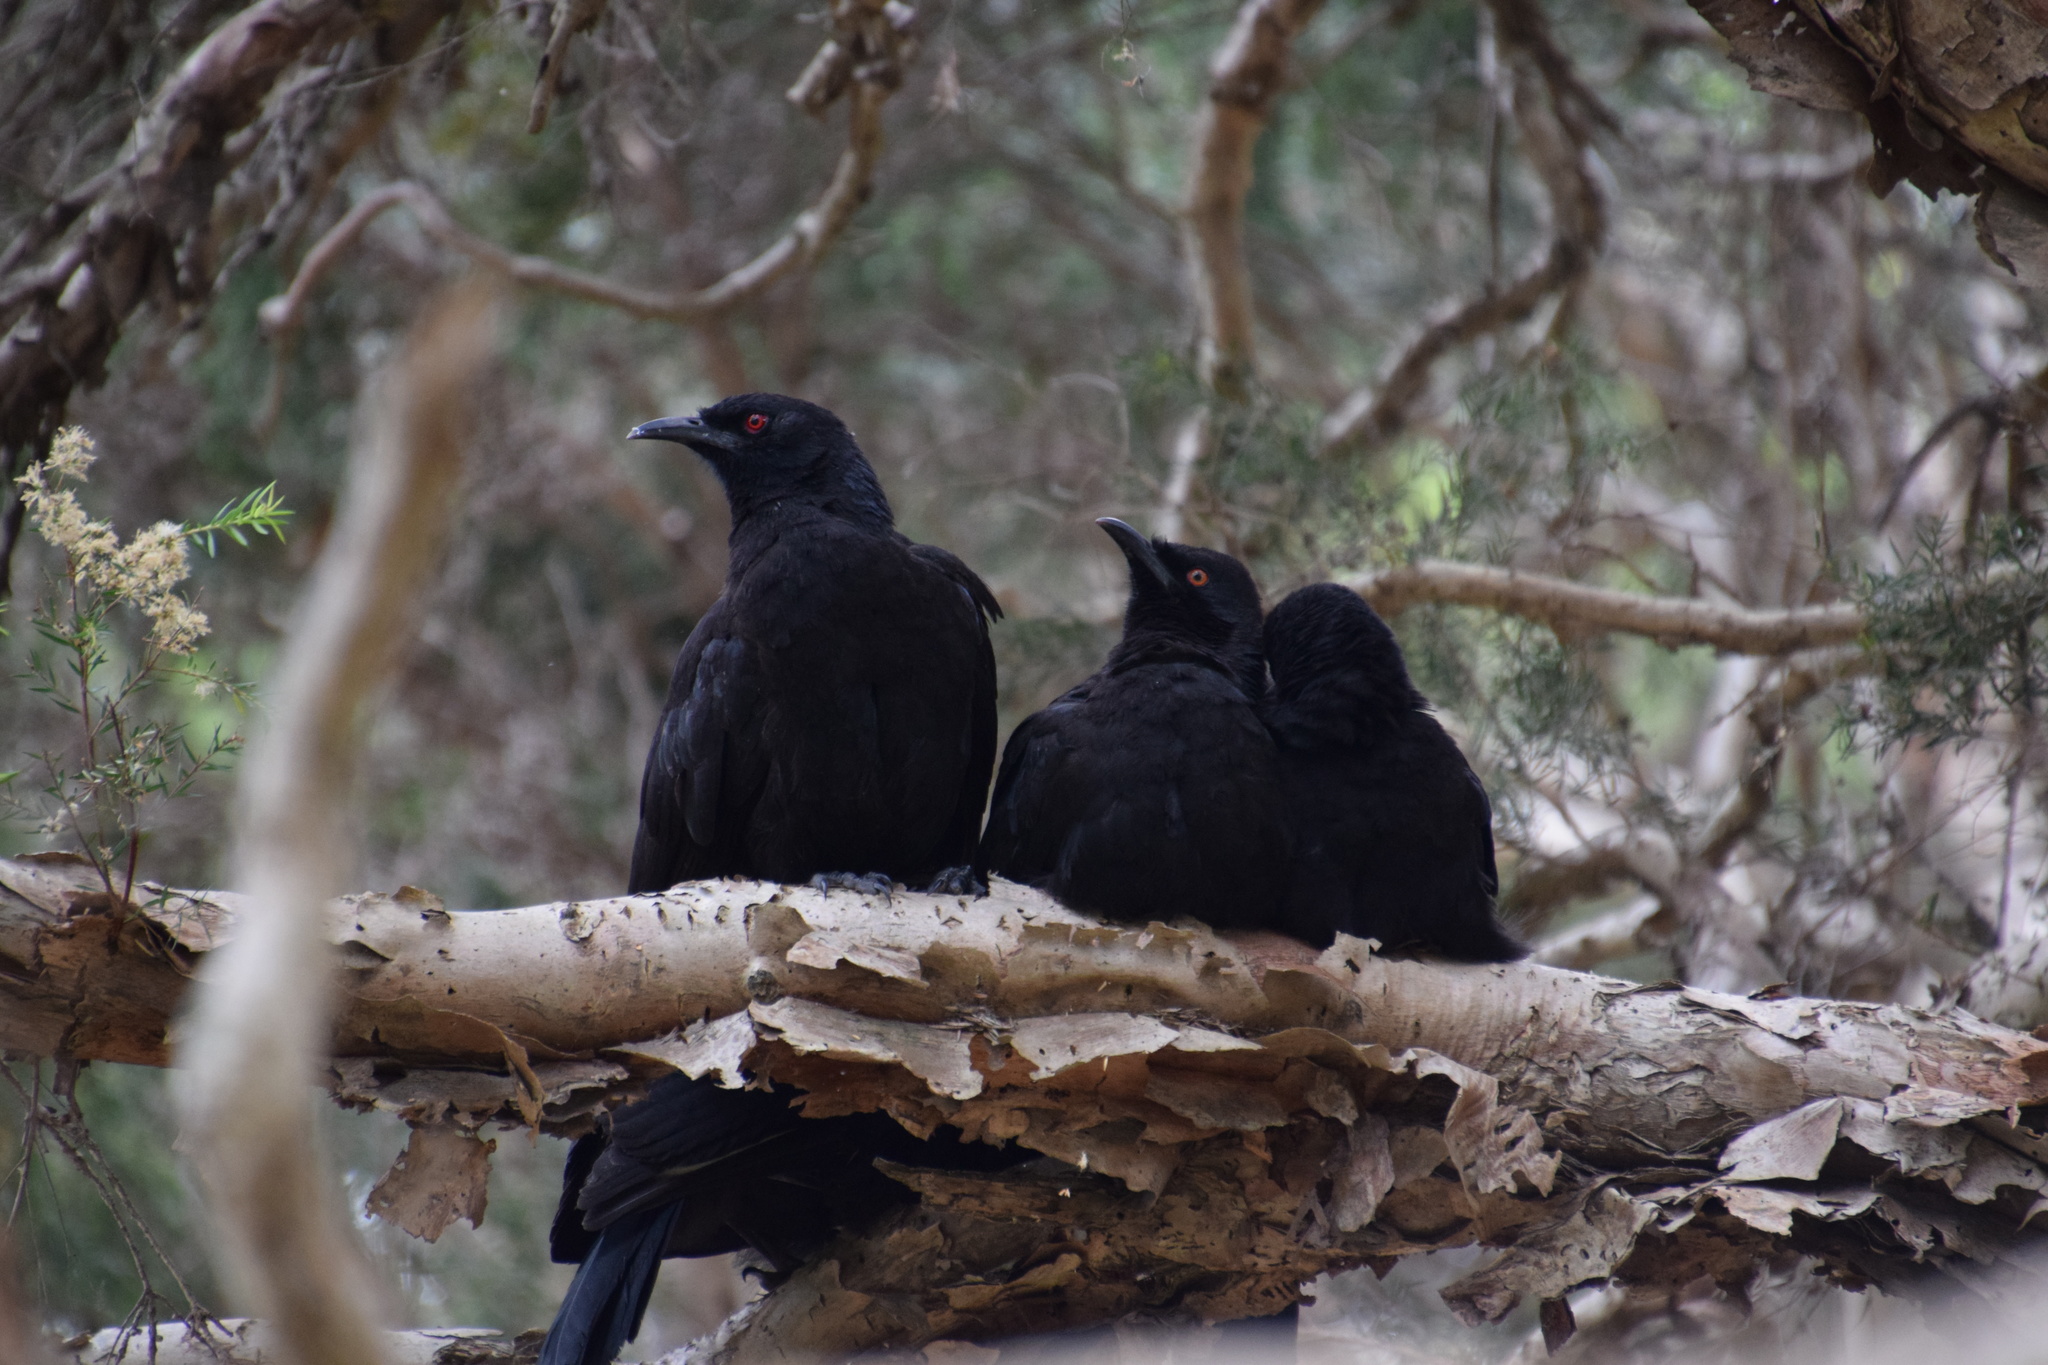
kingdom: Animalia
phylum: Chordata
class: Aves
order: Passeriformes
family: Corcoracidae
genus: Corcorax
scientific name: Corcorax melanoramphos
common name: White-winged chough
